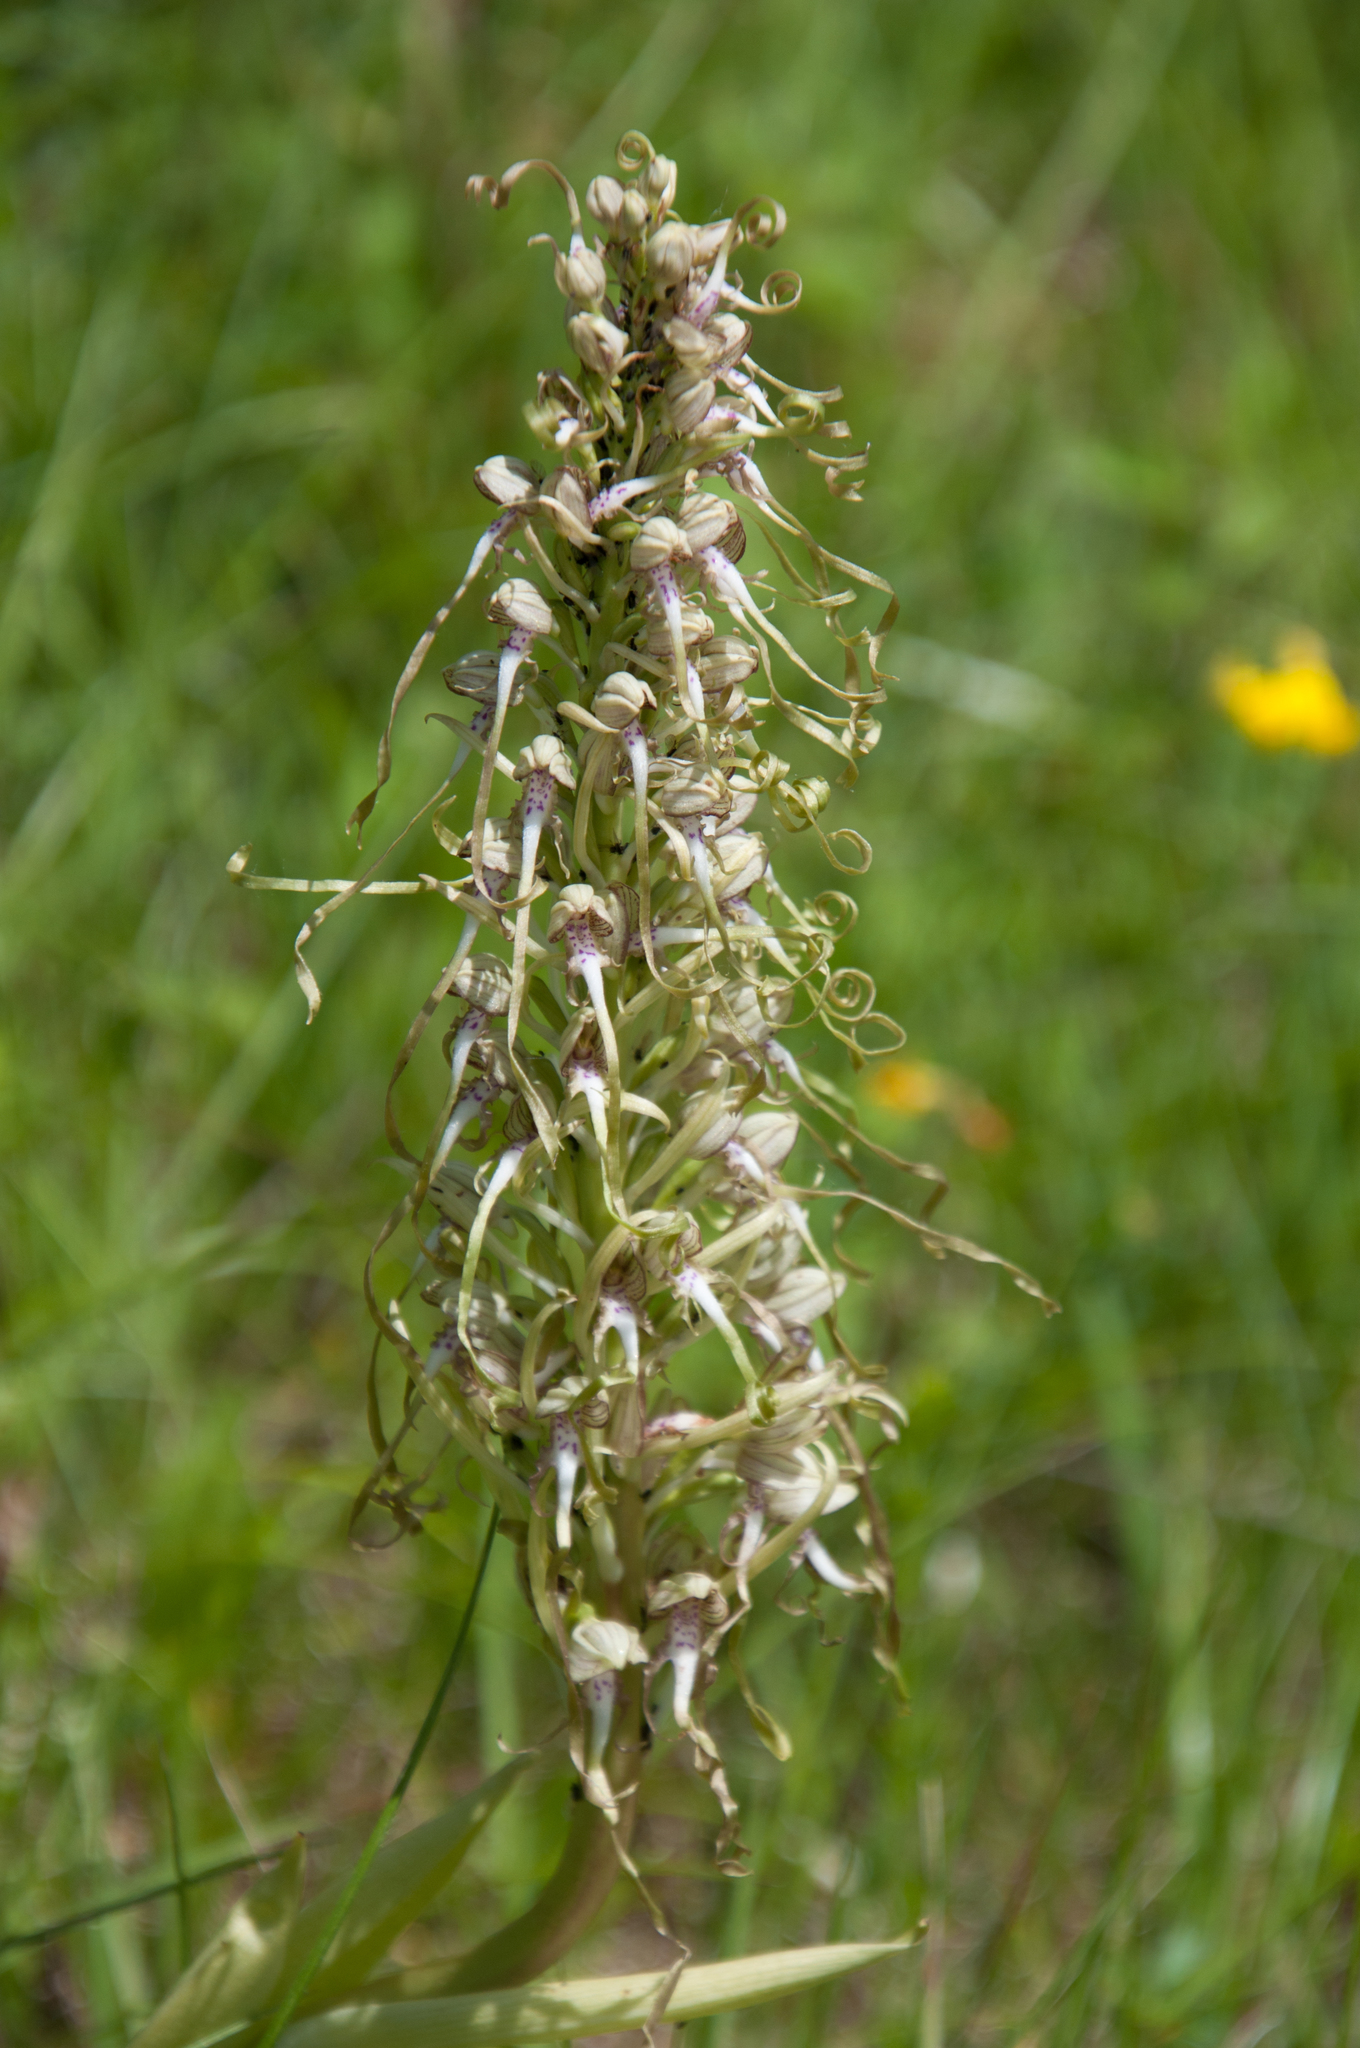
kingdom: Plantae
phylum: Tracheophyta
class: Liliopsida
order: Asparagales
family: Orchidaceae
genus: Himantoglossum
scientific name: Himantoglossum hircinum
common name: Lizard orchid
